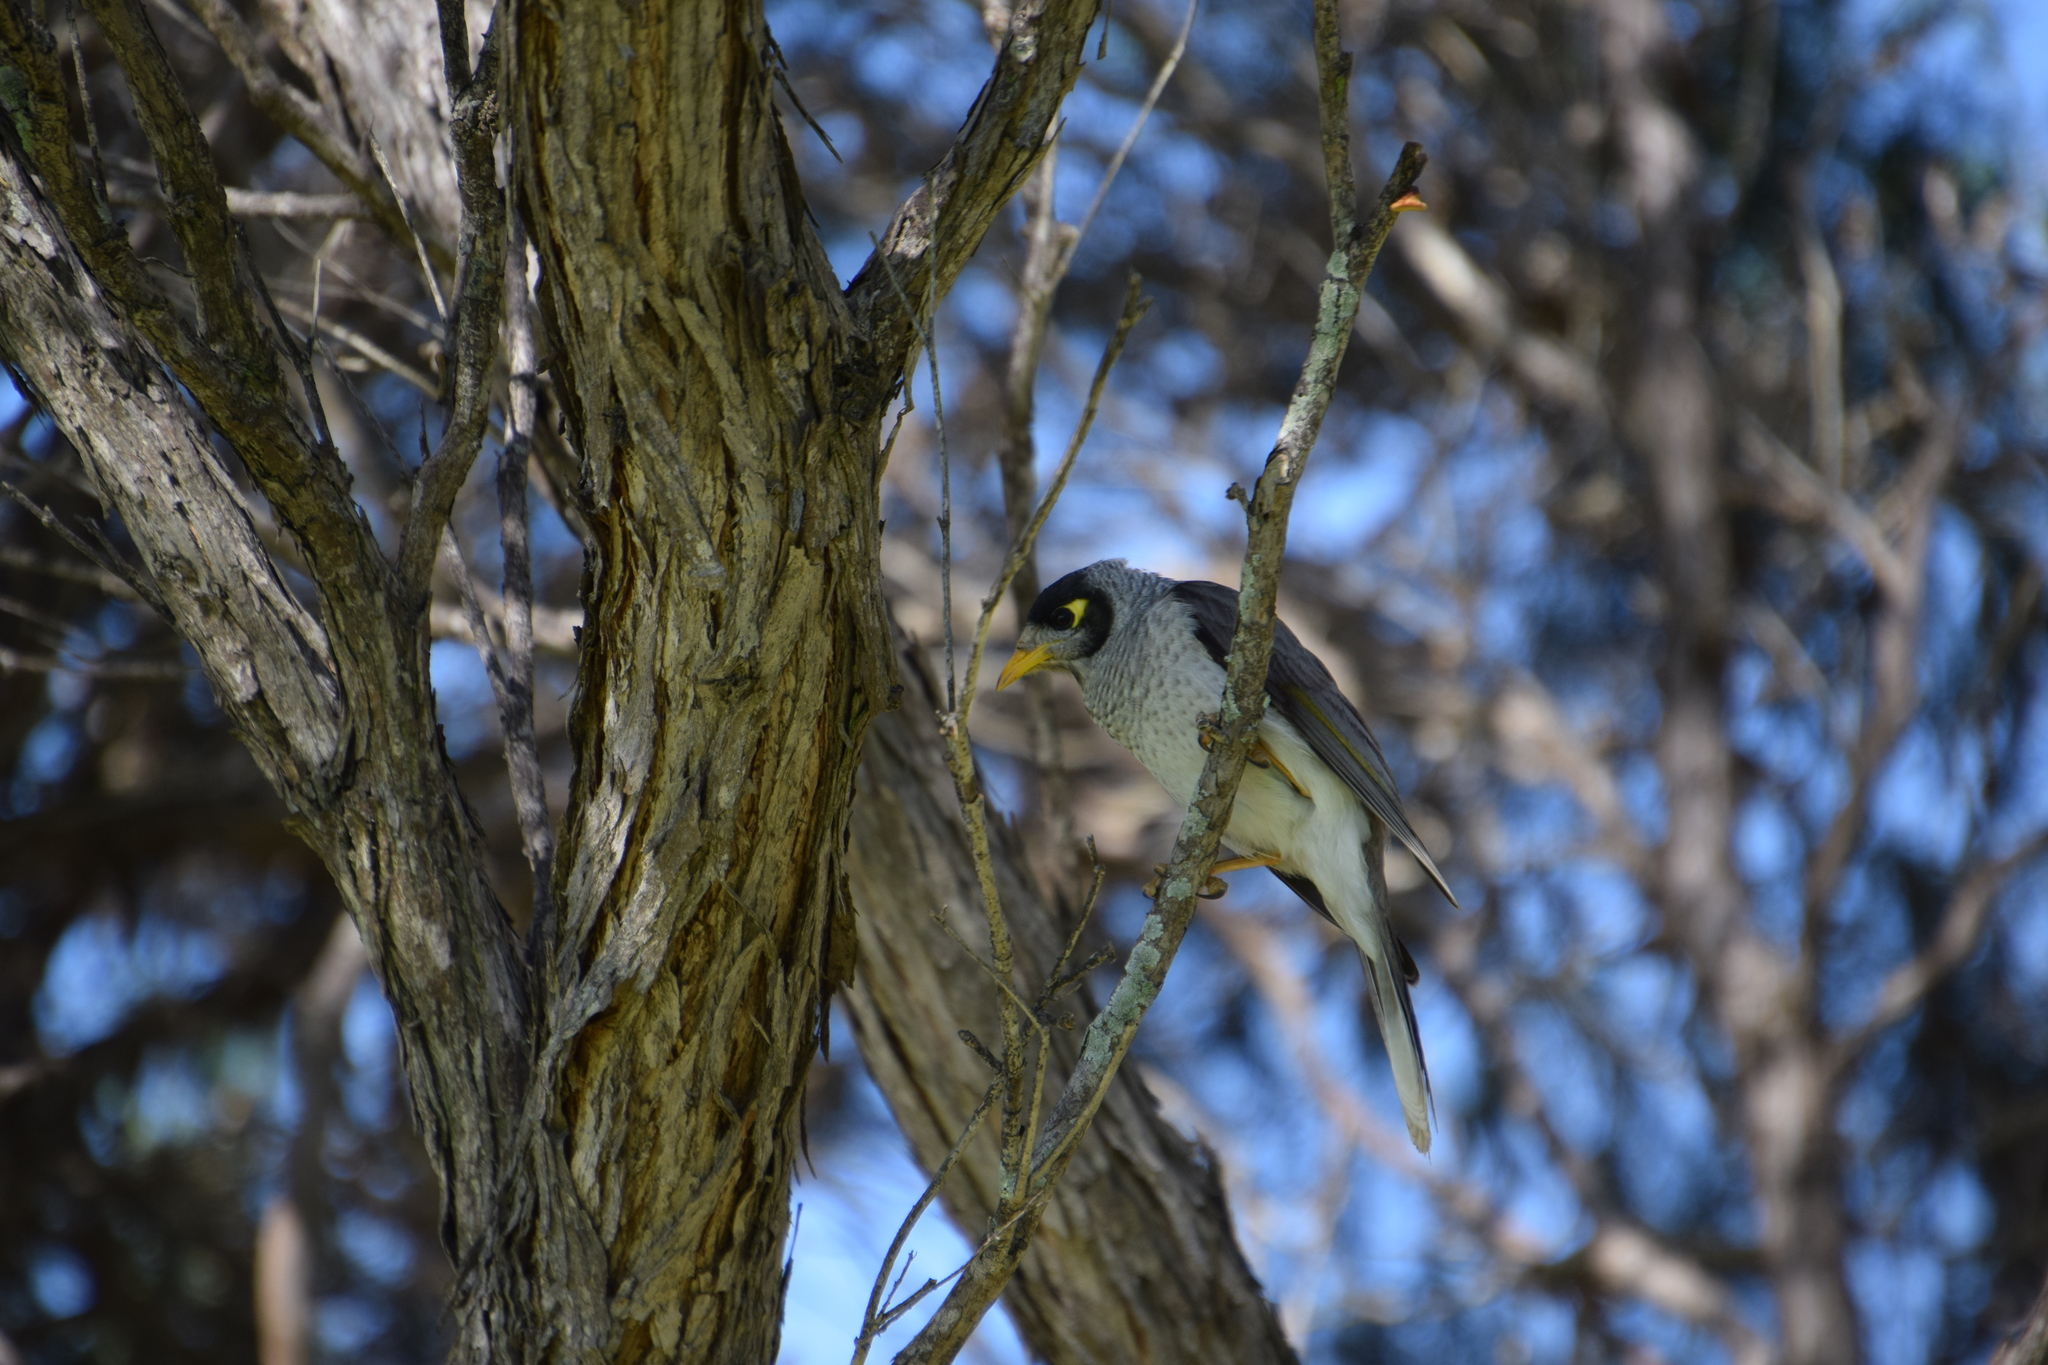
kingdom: Animalia
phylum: Chordata
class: Aves
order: Passeriformes
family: Meliphagidae
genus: Manorina
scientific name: Manorina melanocephala
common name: Noisy miner
